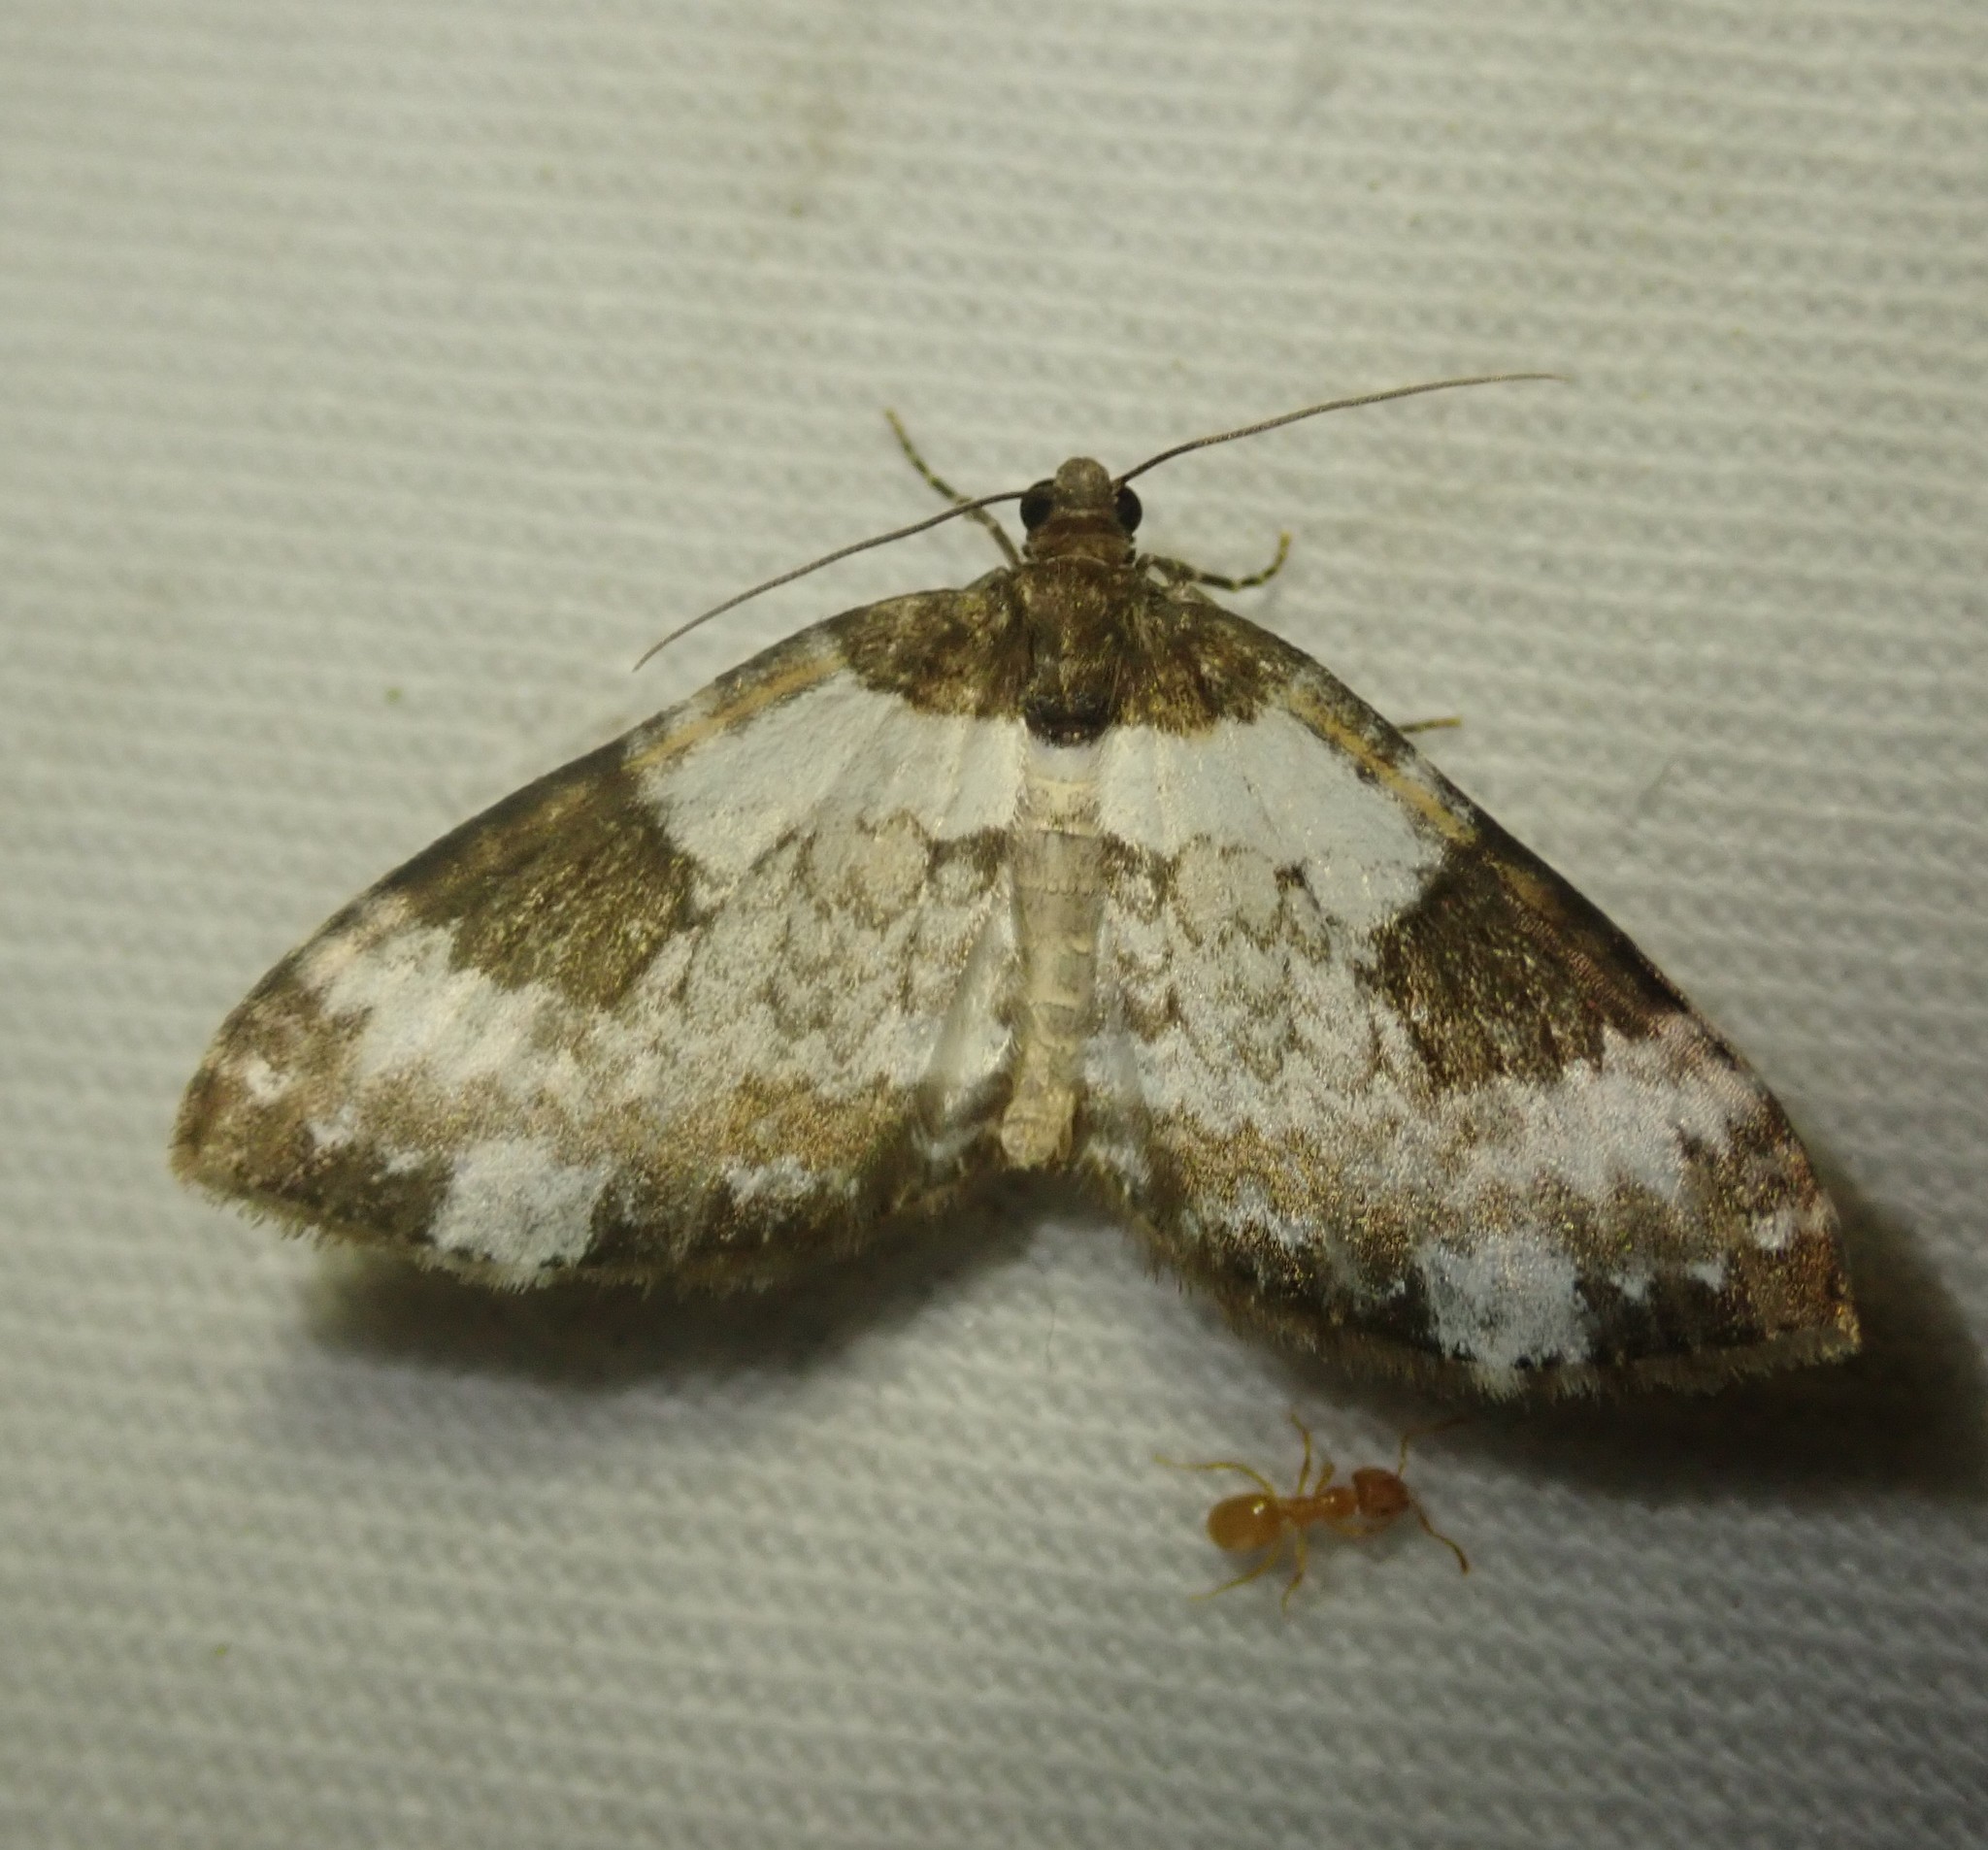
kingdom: Animalia
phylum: Arthropoda
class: Insecta
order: Lepidoptera
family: Geometridae
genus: Melanthia
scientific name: Melanthia procellata
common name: Pretty chalk carpet
